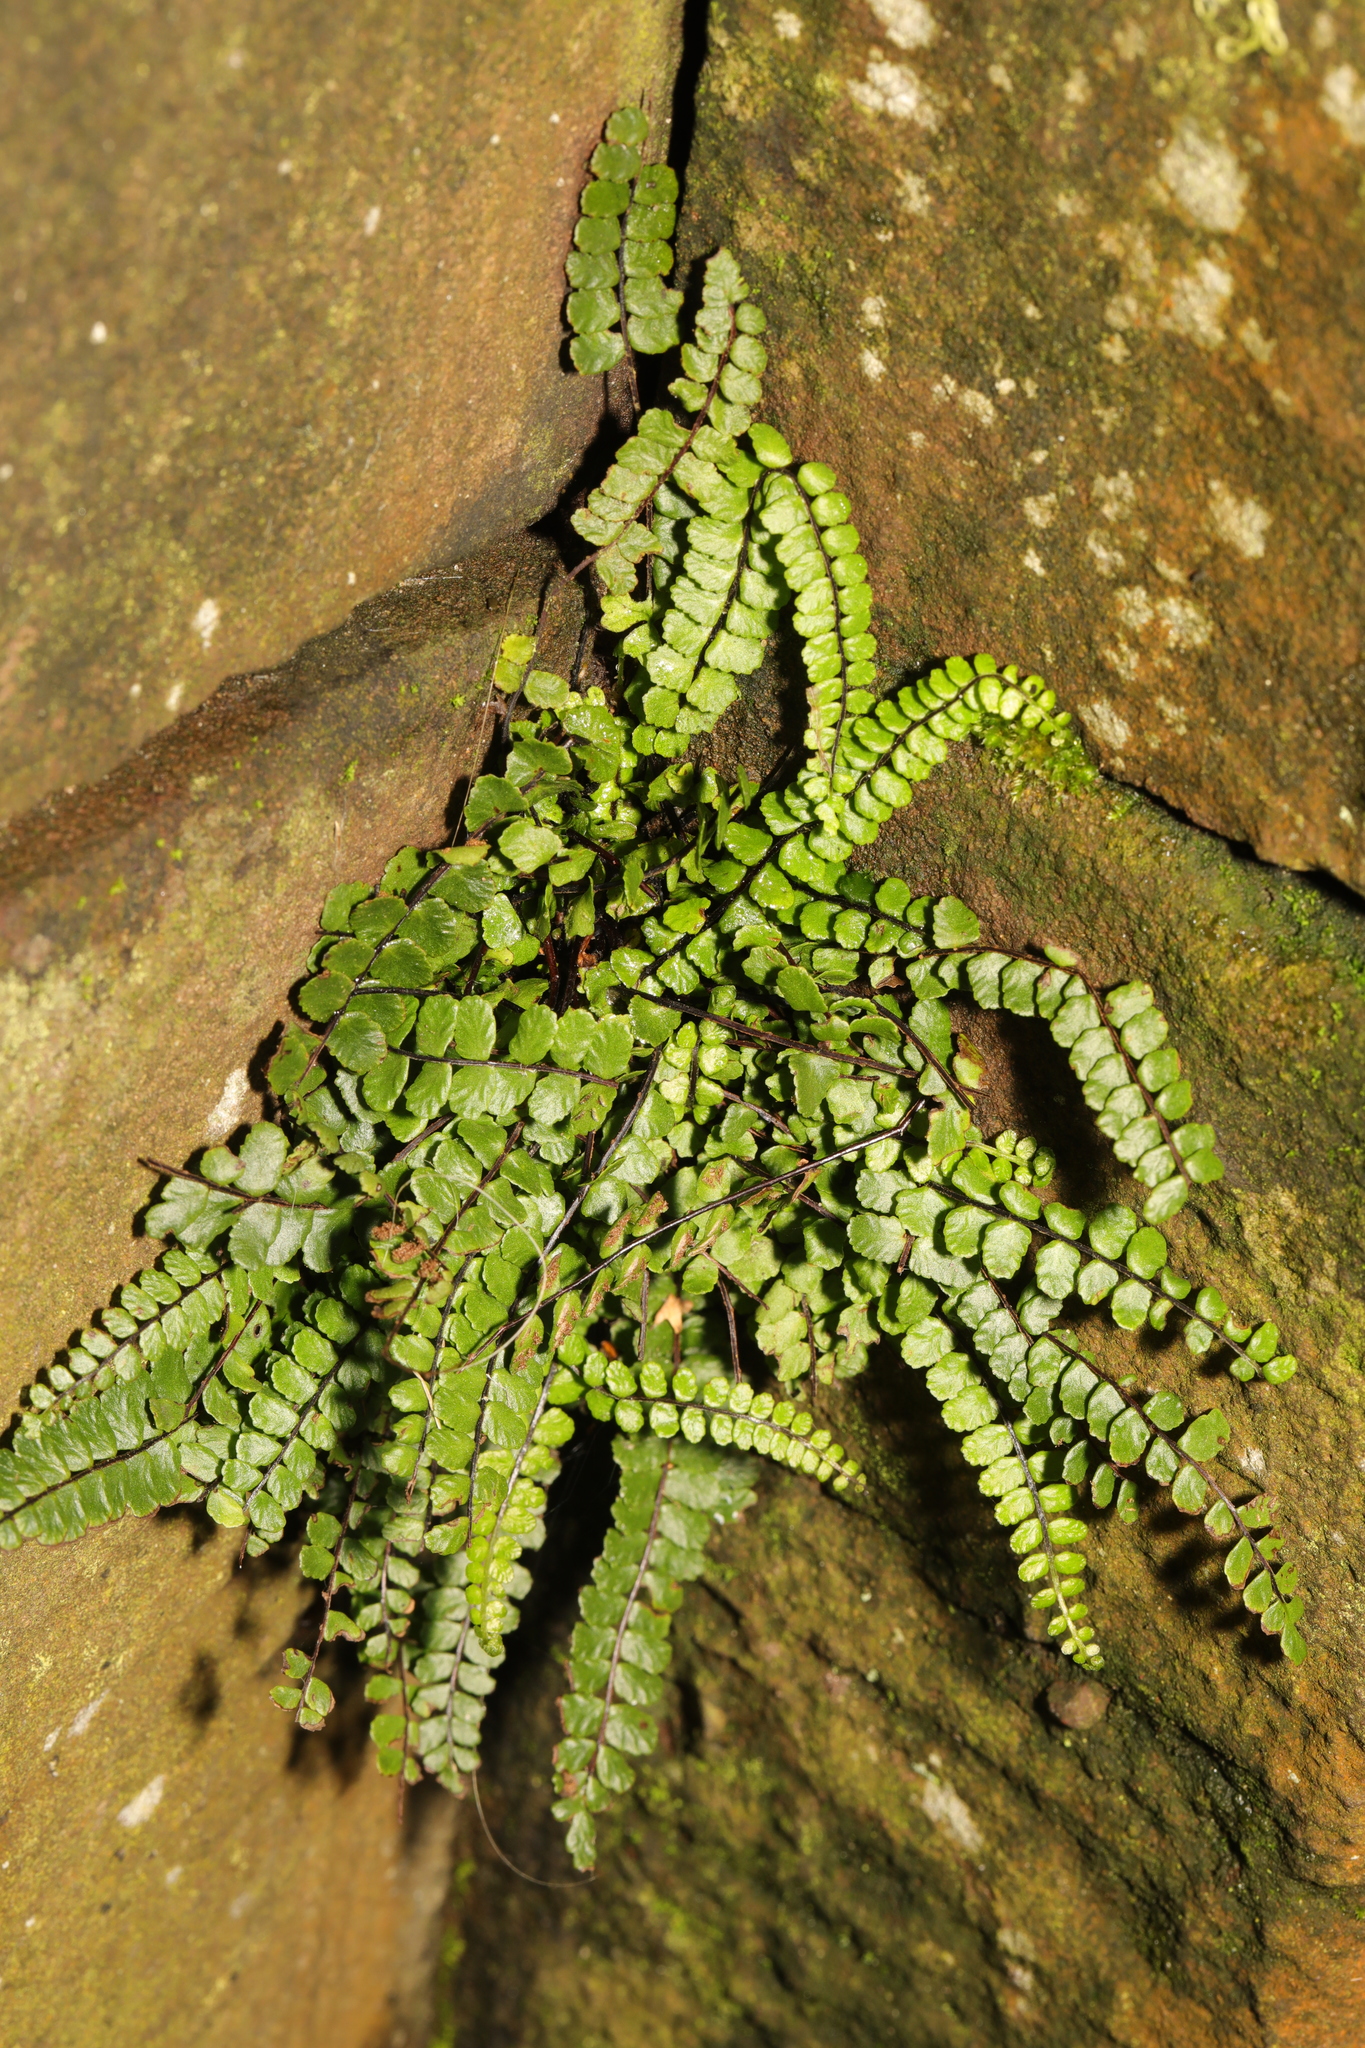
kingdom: Plantae
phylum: Tracheophyta
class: Polypodiopsida
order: Polypodiales
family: Aspleniaceae
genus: Asplenium
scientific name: Asplenium trichomanes
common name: Maidenhair spleenwort
